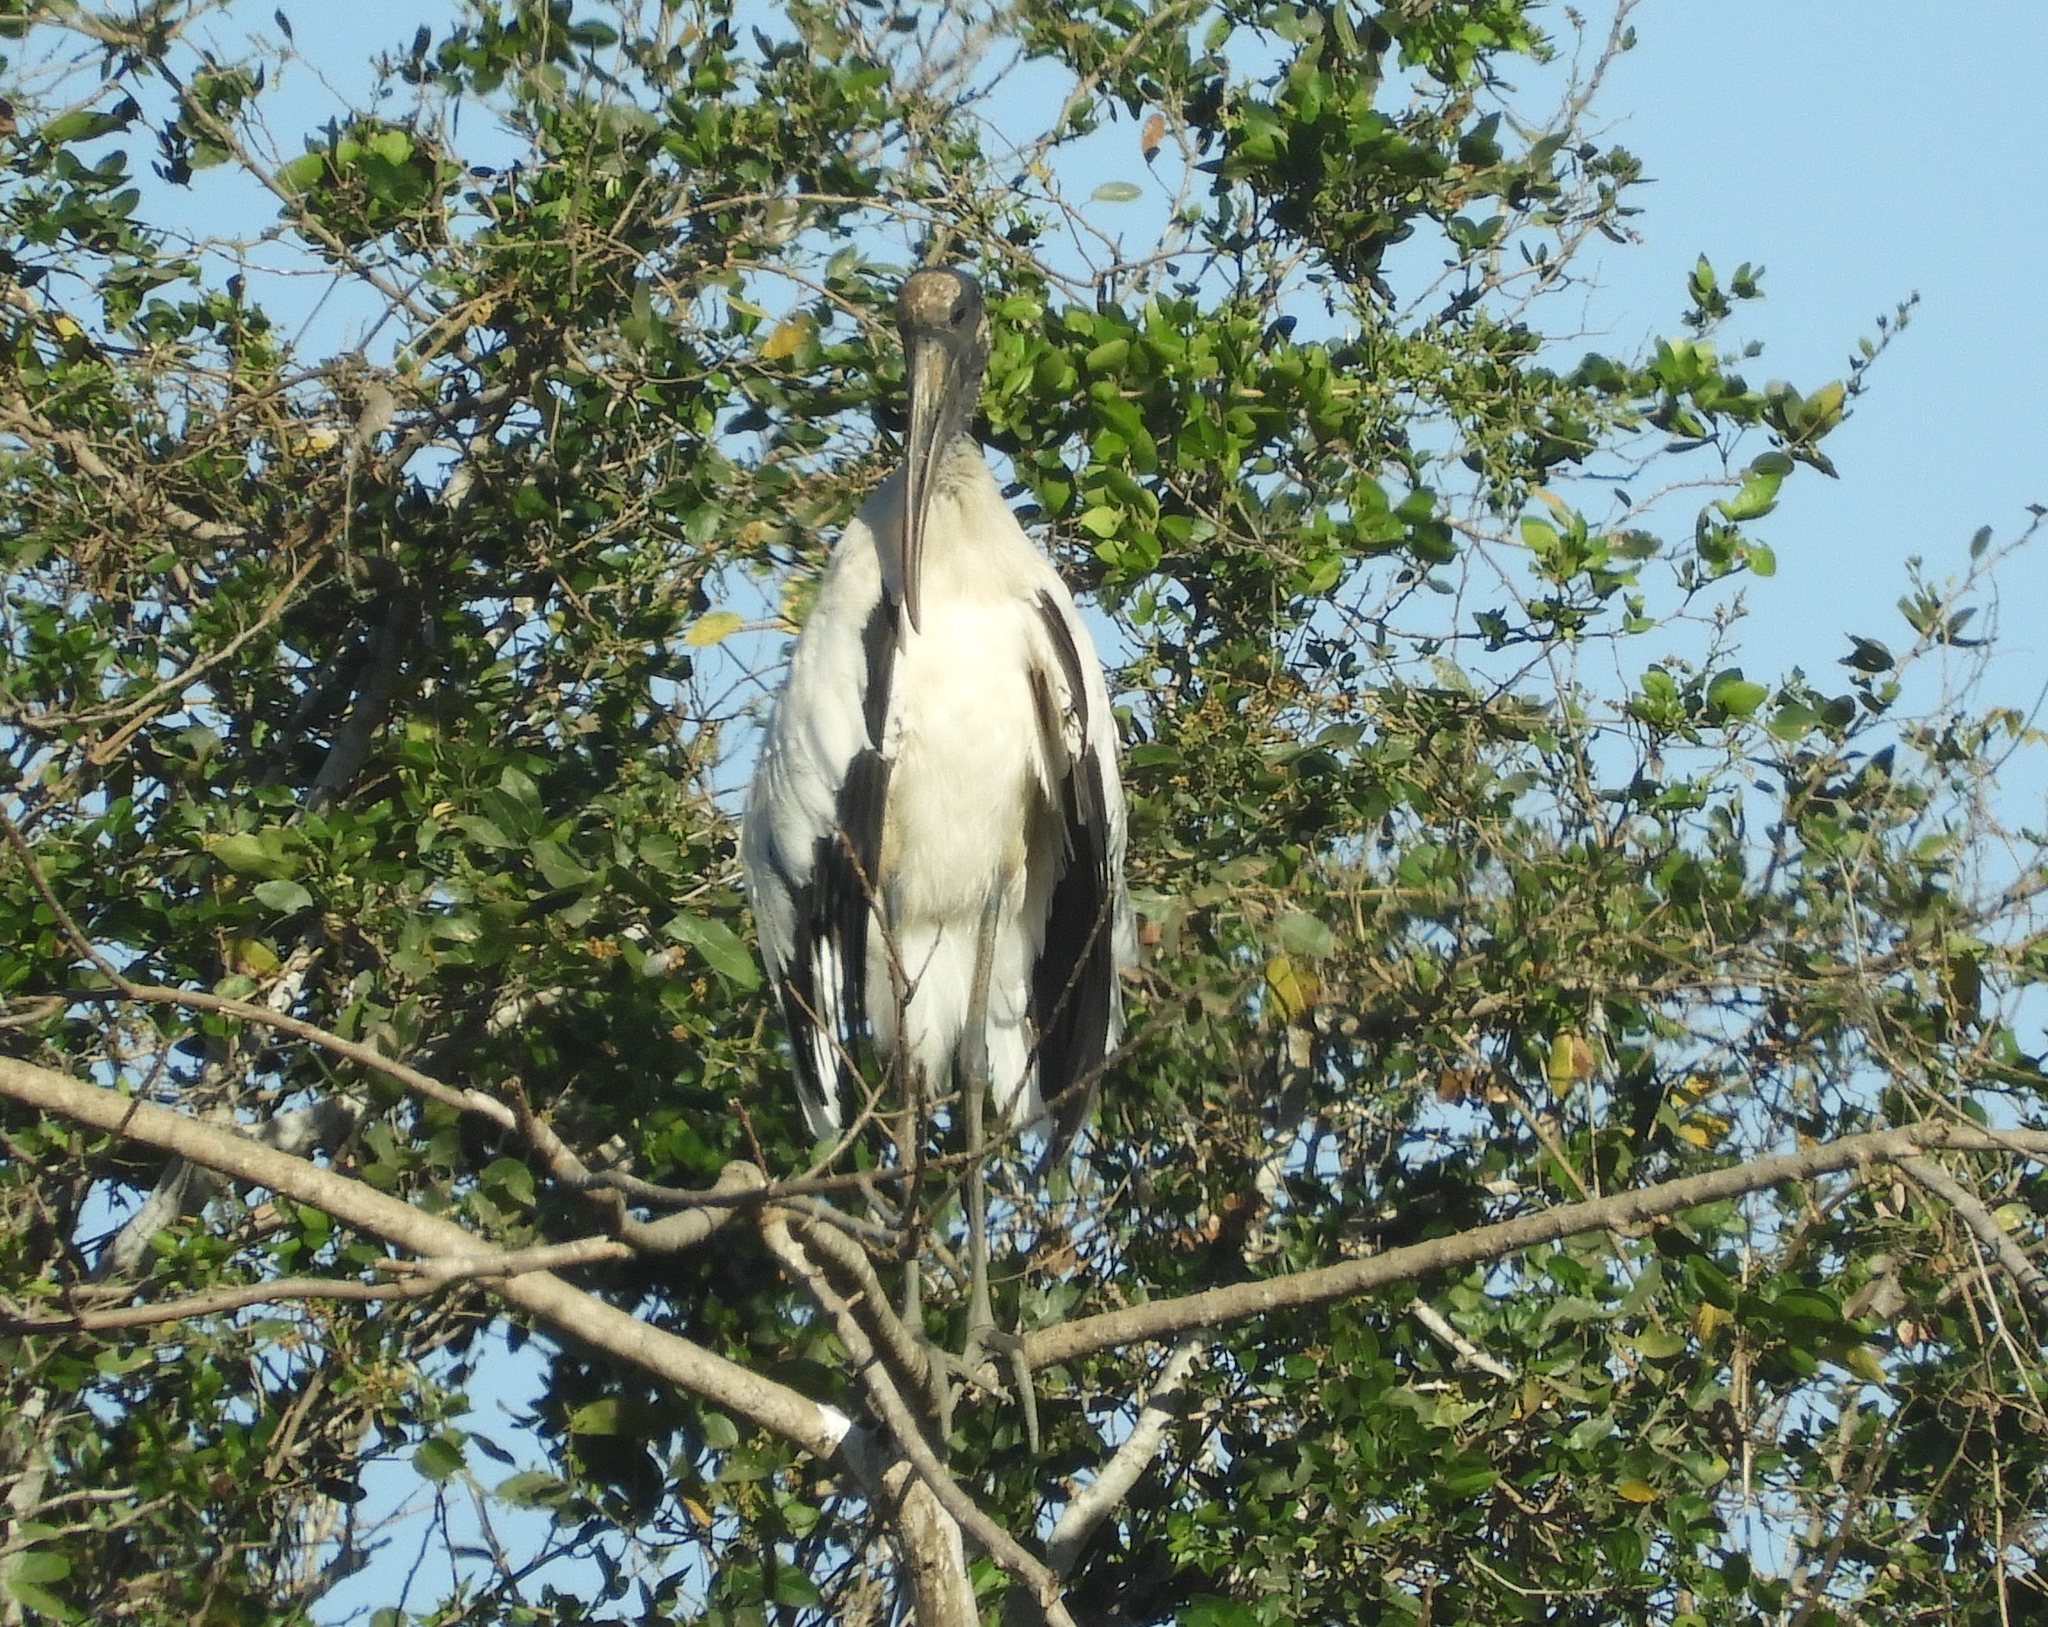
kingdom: Animalia
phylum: Chordata
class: Aves
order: Ciconiiformes
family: Ciconiidae
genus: Mycteria
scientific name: Mycteria americana
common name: Wood stork
